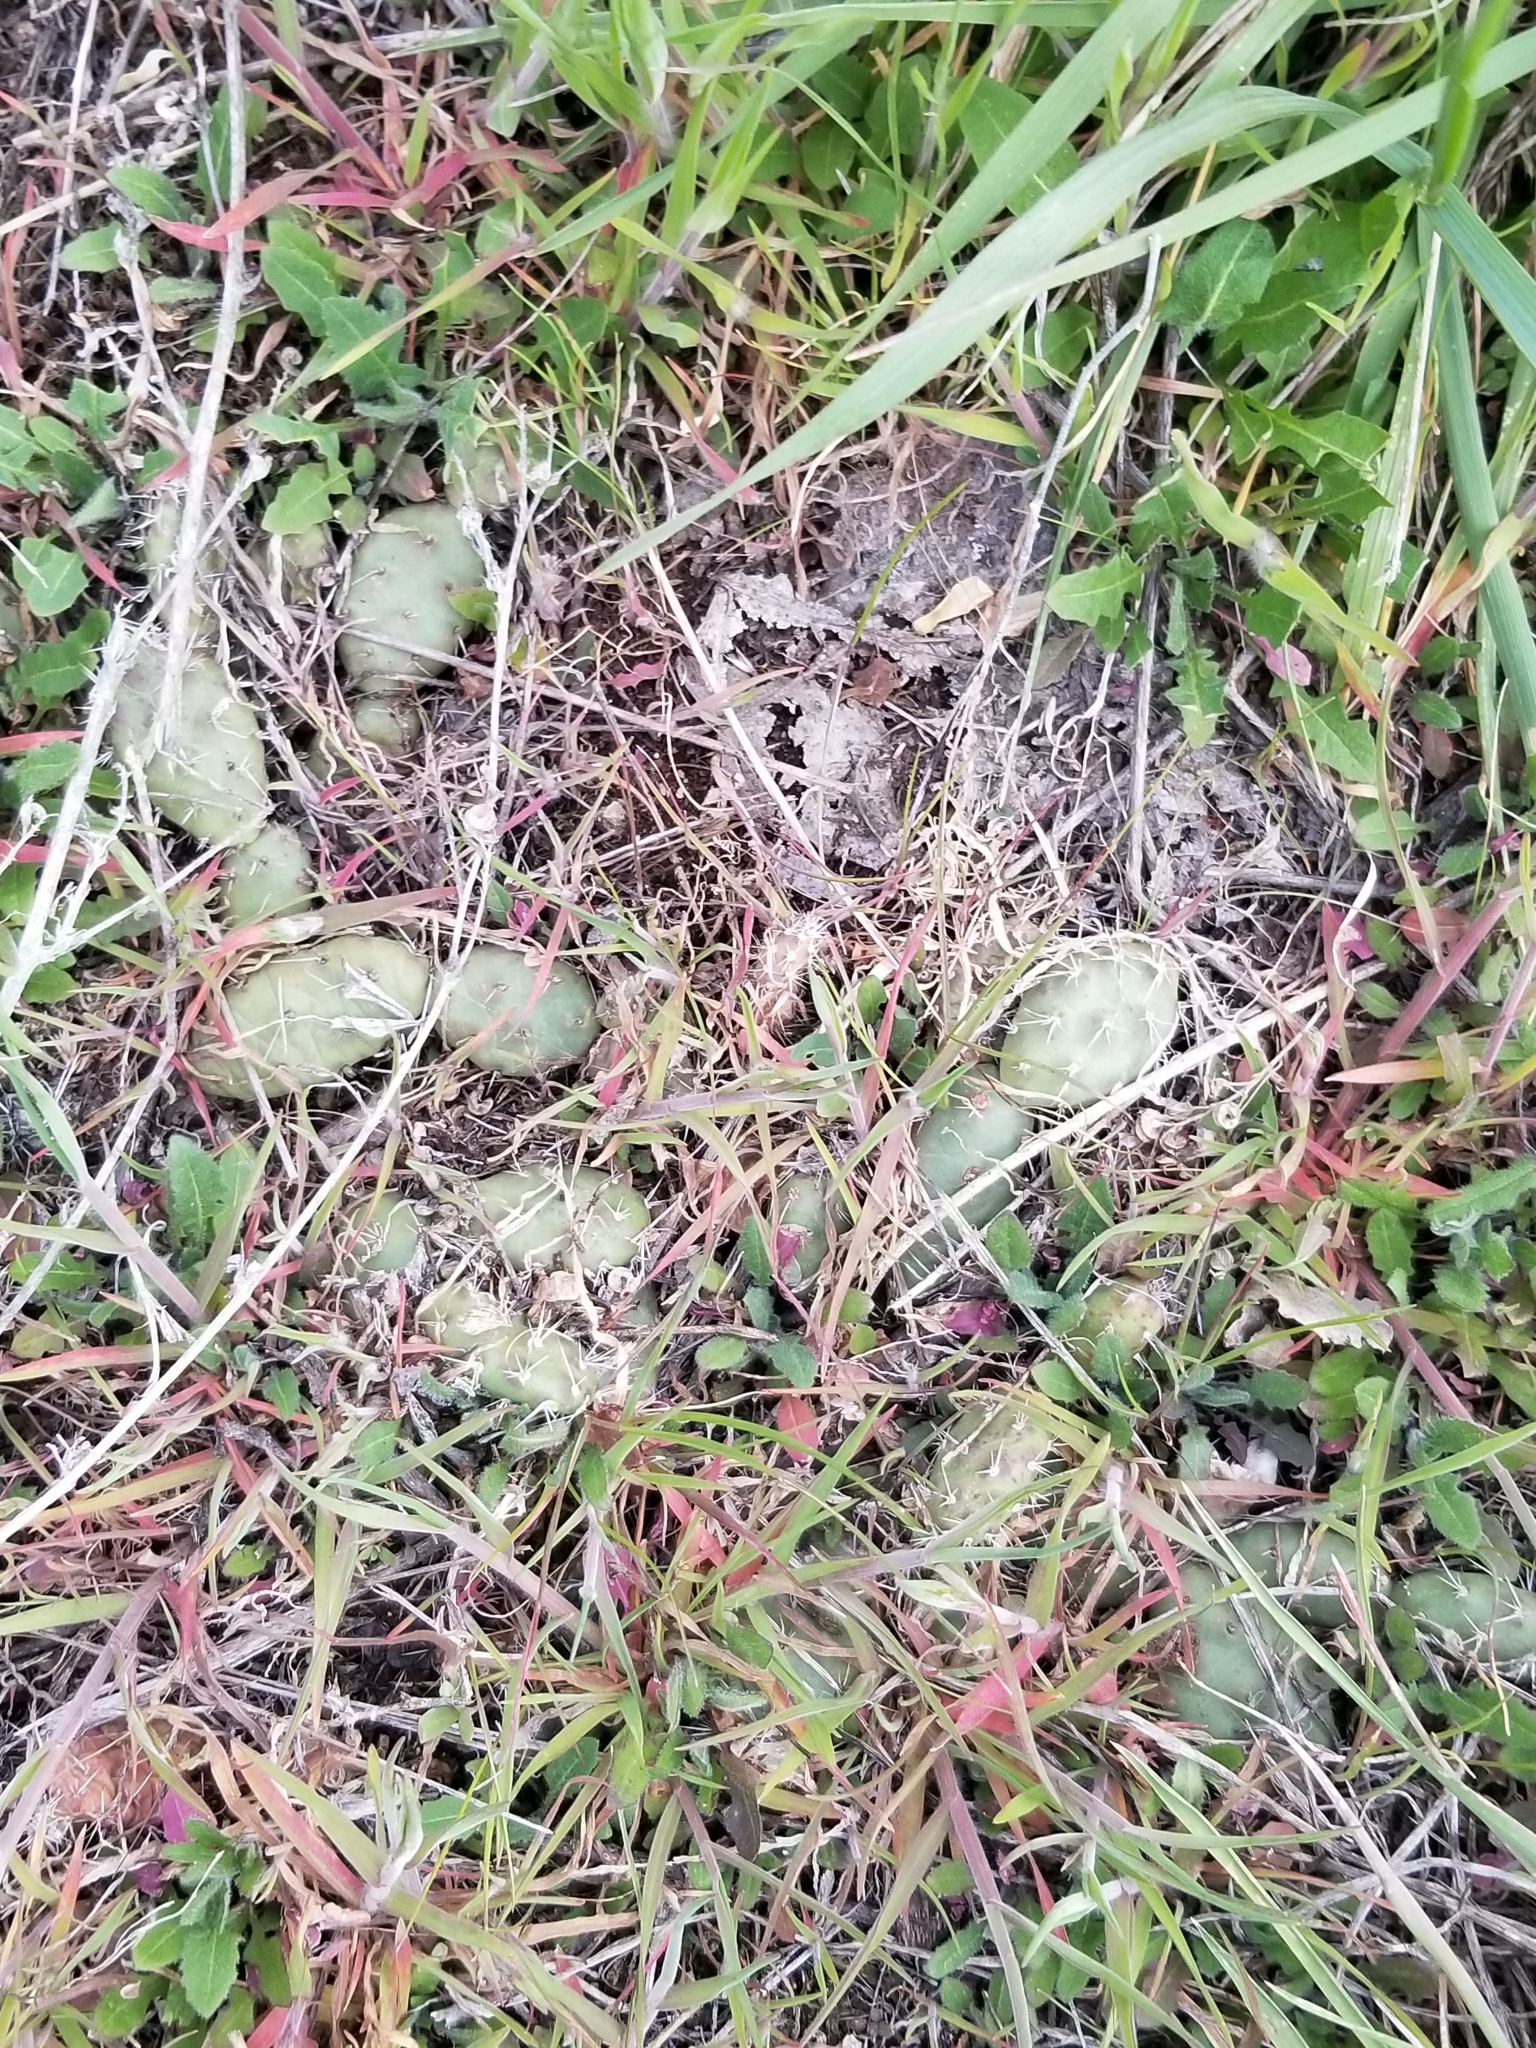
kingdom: Plantae
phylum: Tracheophyta
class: Magnoliopsida
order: Caryophyllales
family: Cactaceae
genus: Opuntia
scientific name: Opuntia fragilis
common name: Brittle cactus
